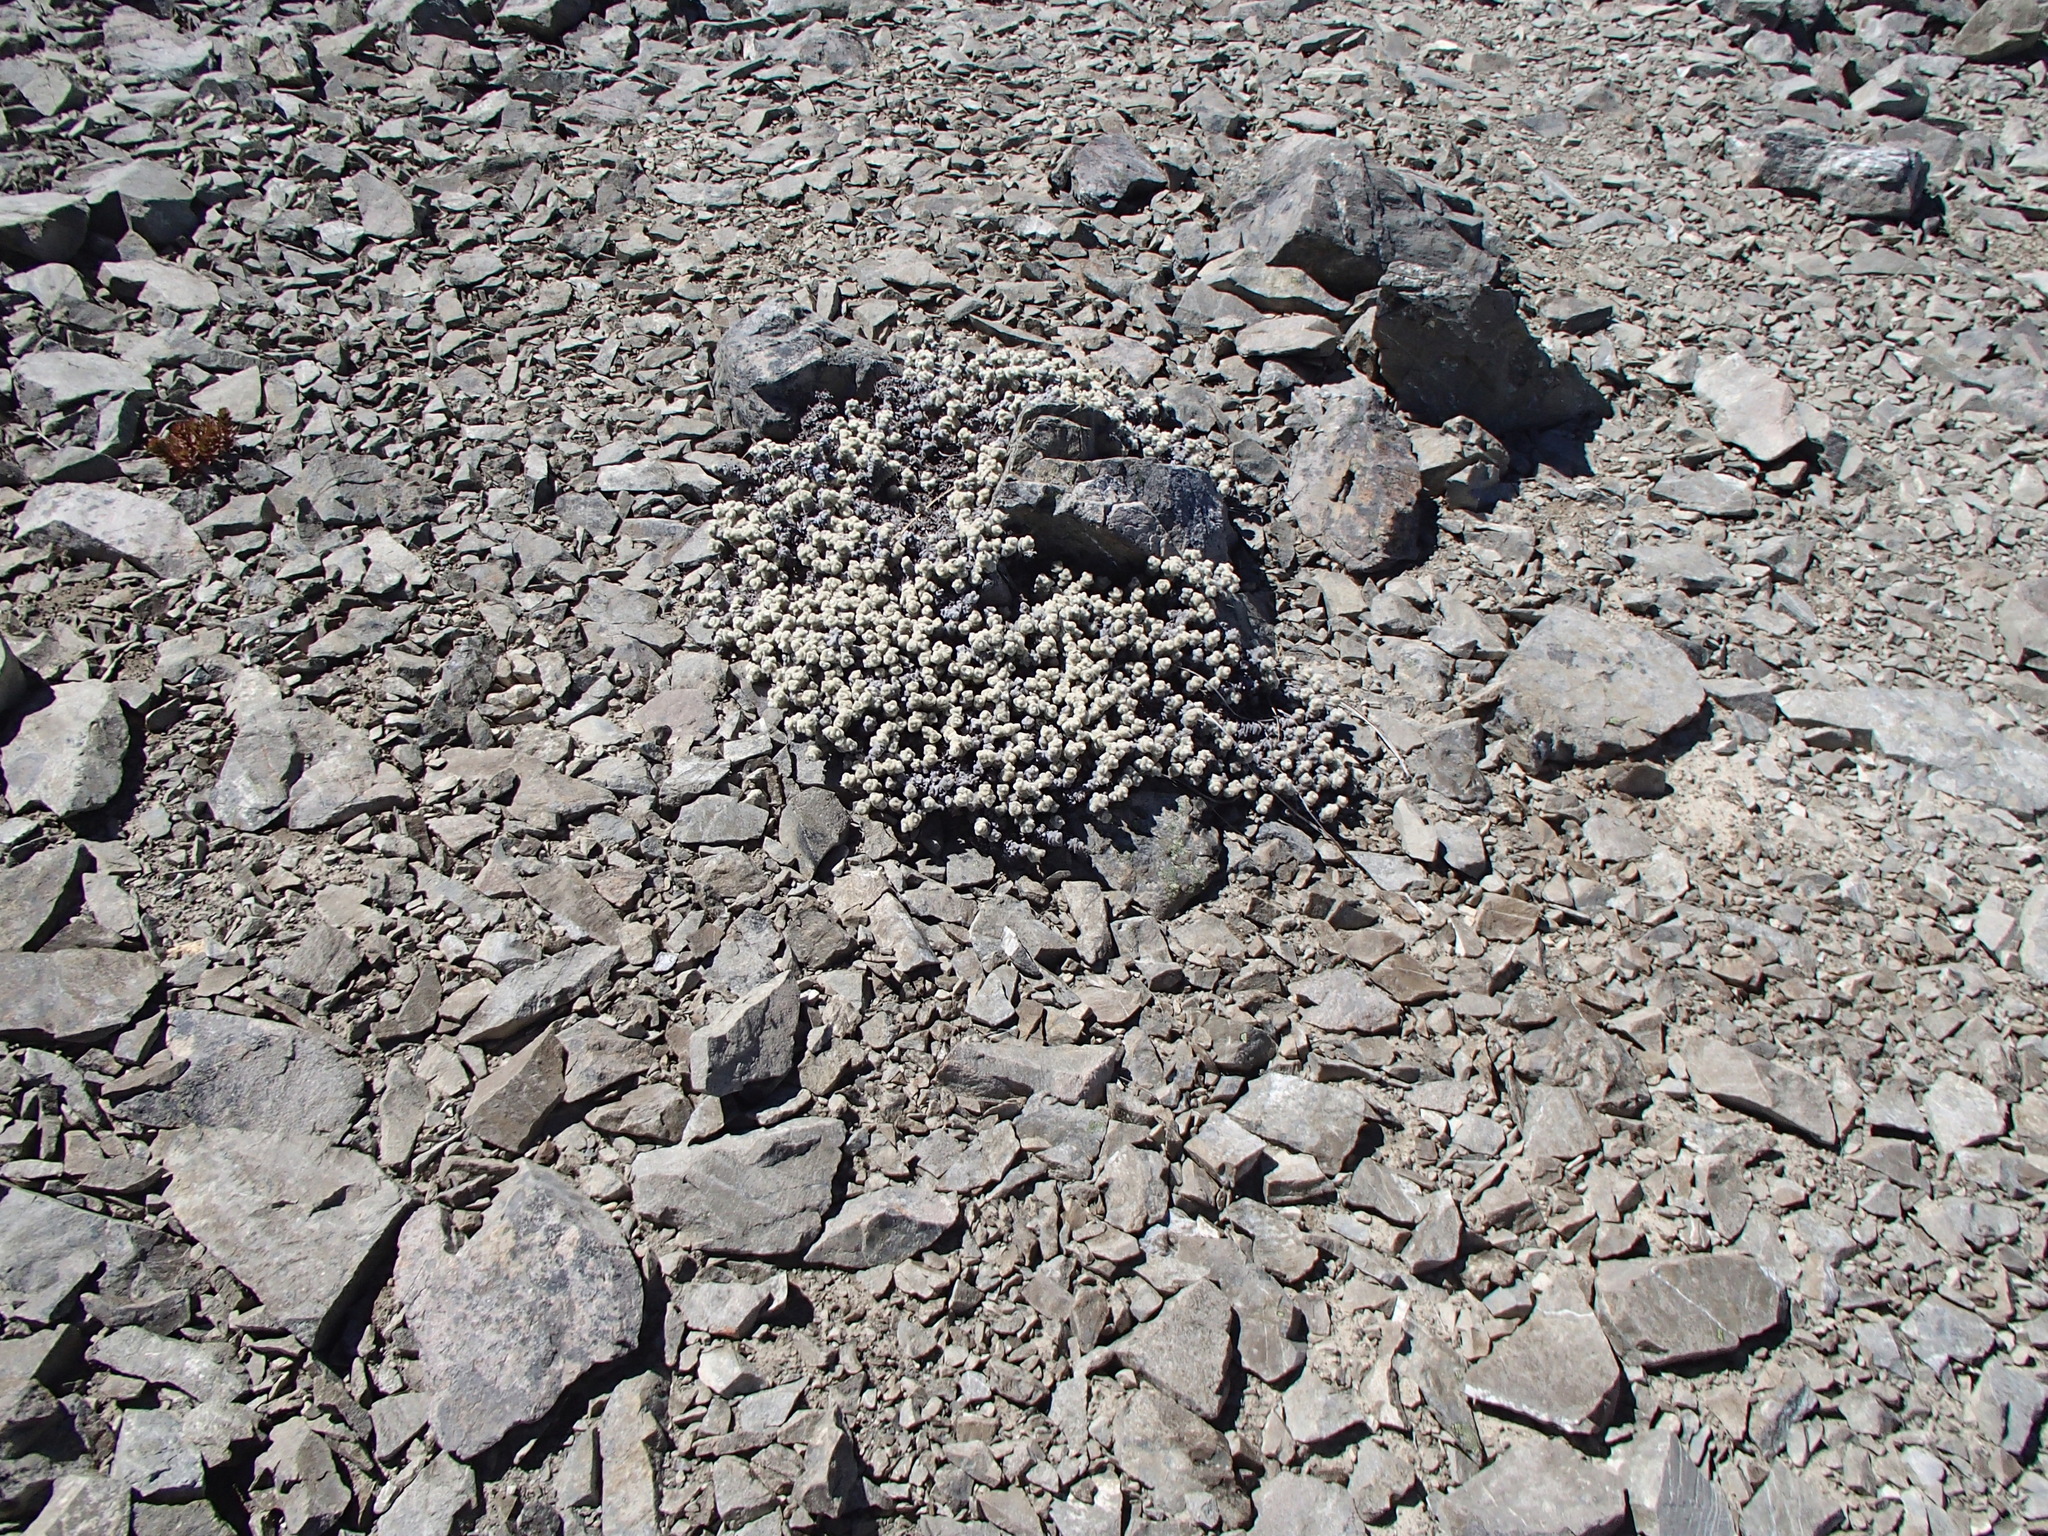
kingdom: Plantae
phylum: Tracheophyta
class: Magnoliopsida
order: Asterales
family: Asteraceae
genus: Haastia
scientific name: Haastia recurva
